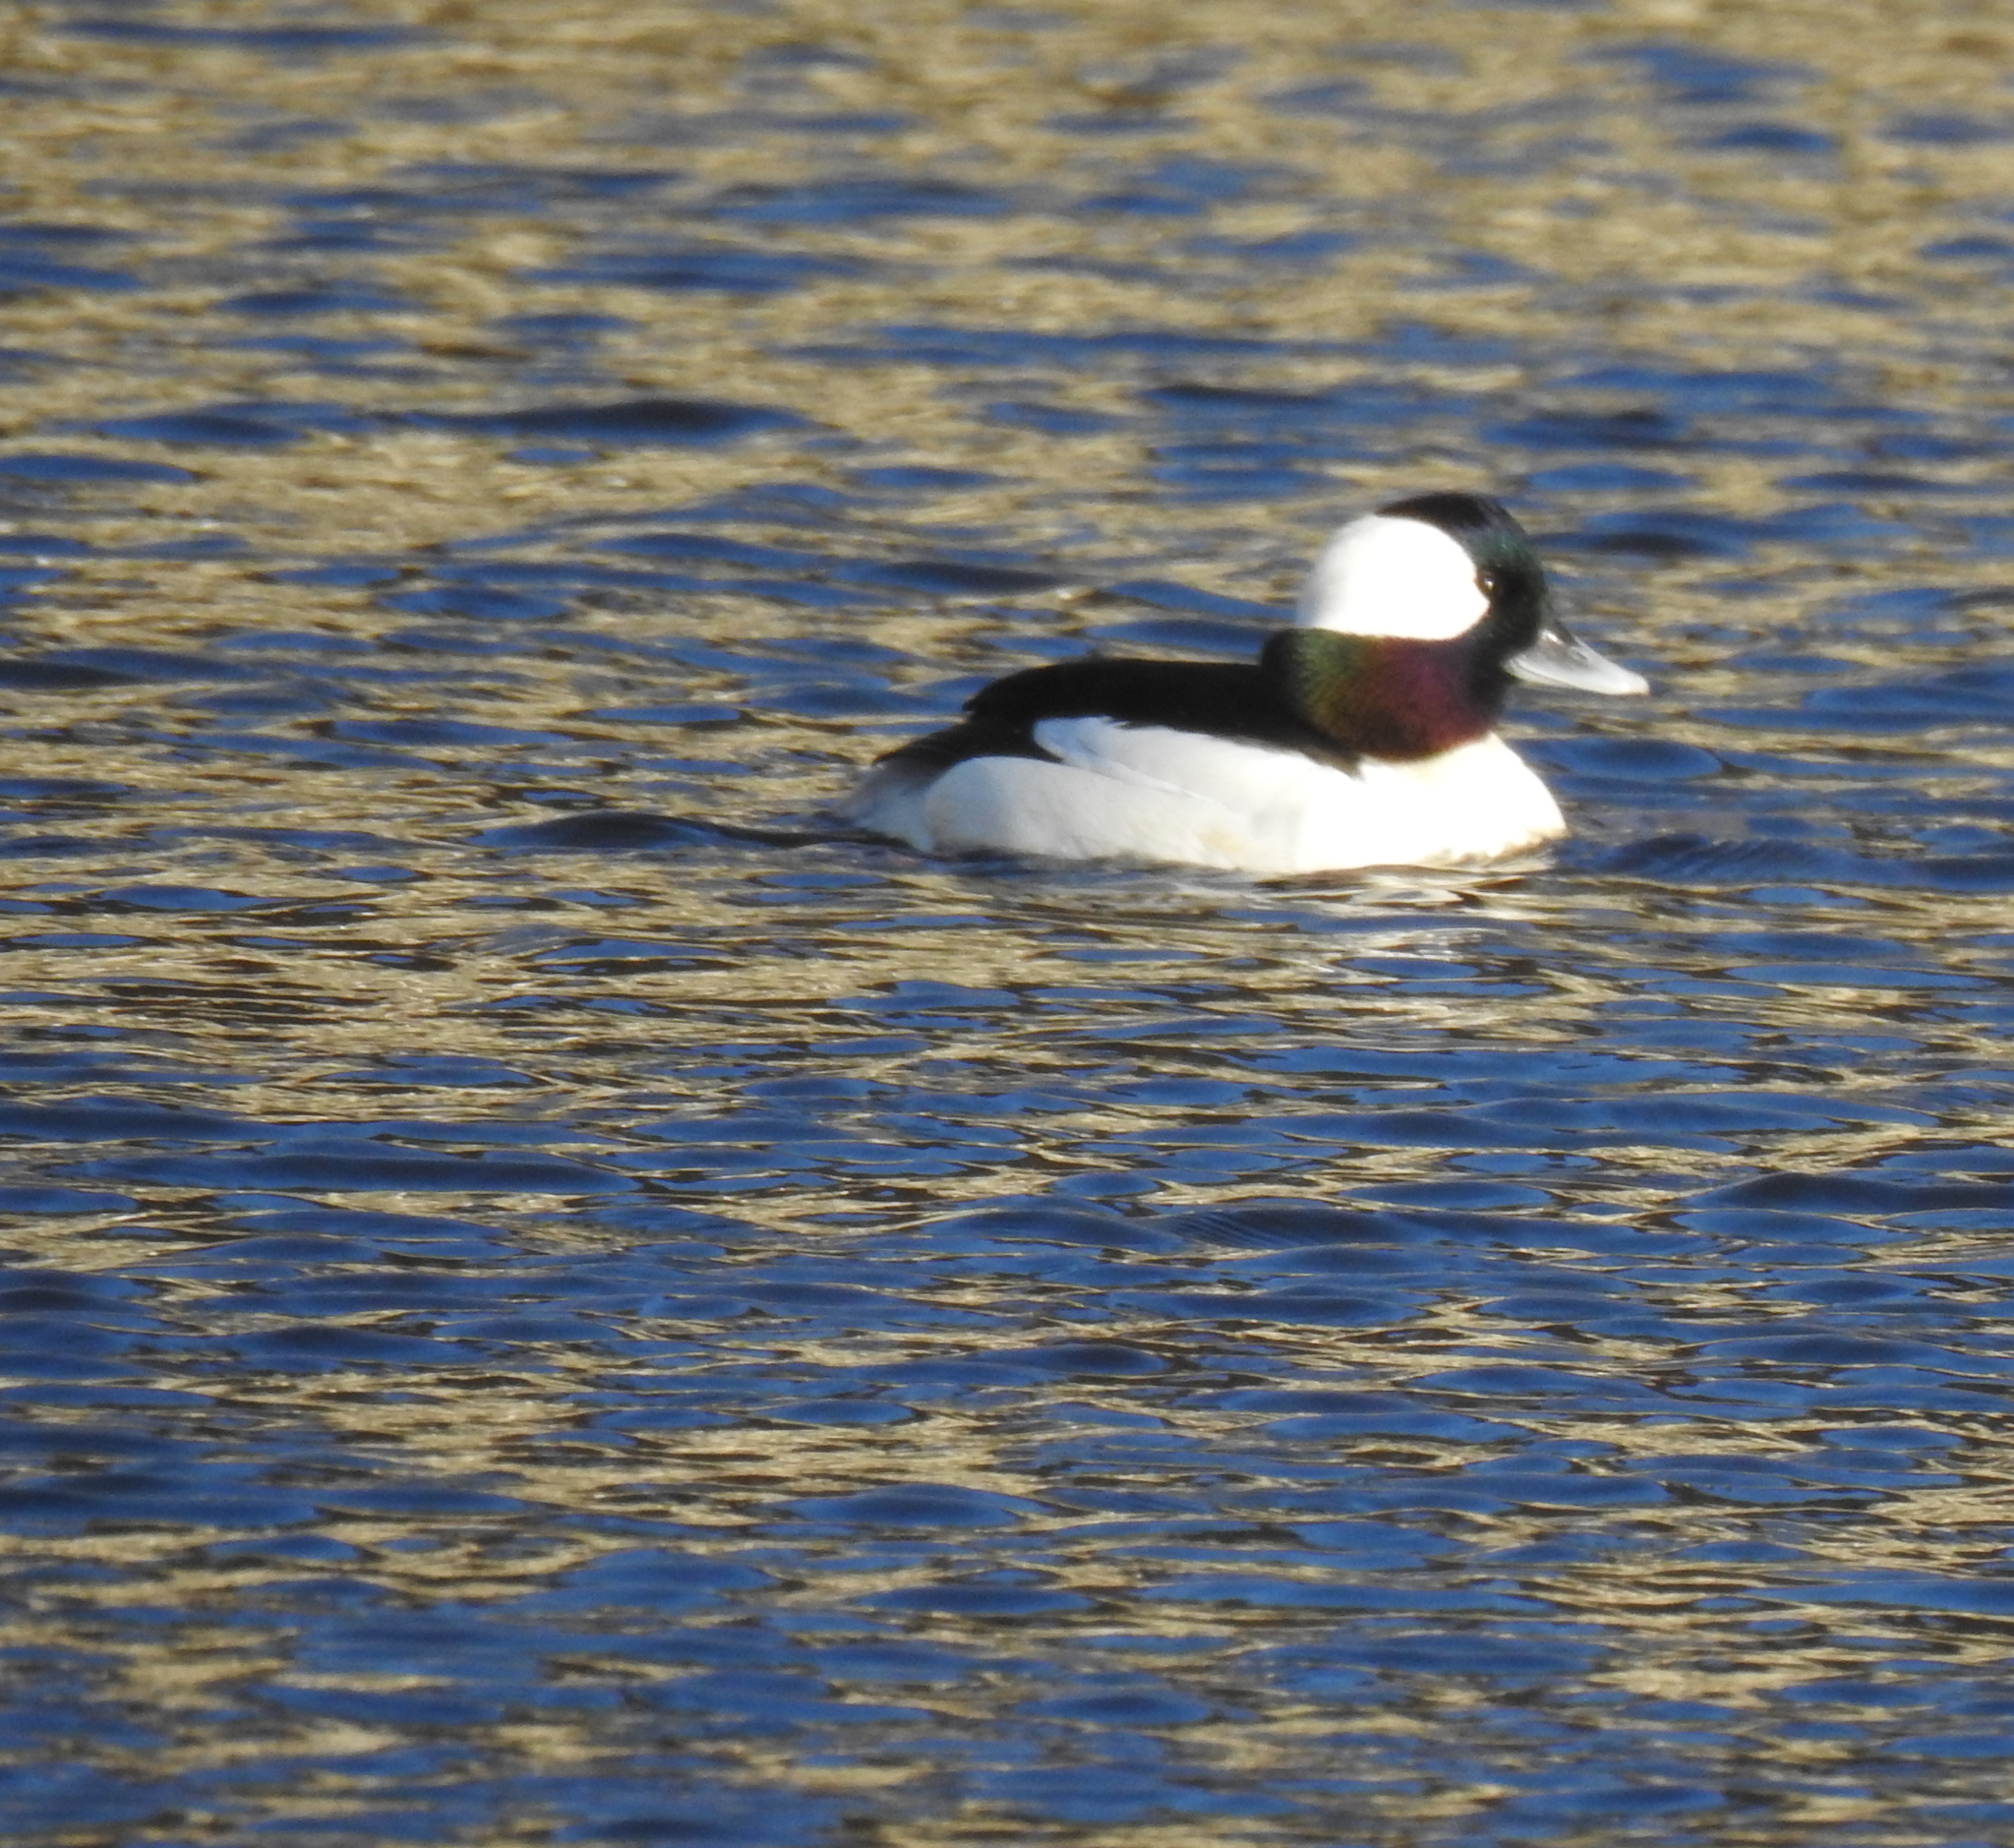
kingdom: Animalia
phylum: Chordata
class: Aves
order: Anseriformes
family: Anatidae
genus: Bucephala
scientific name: Bucephala albeola
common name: Bufflehead
